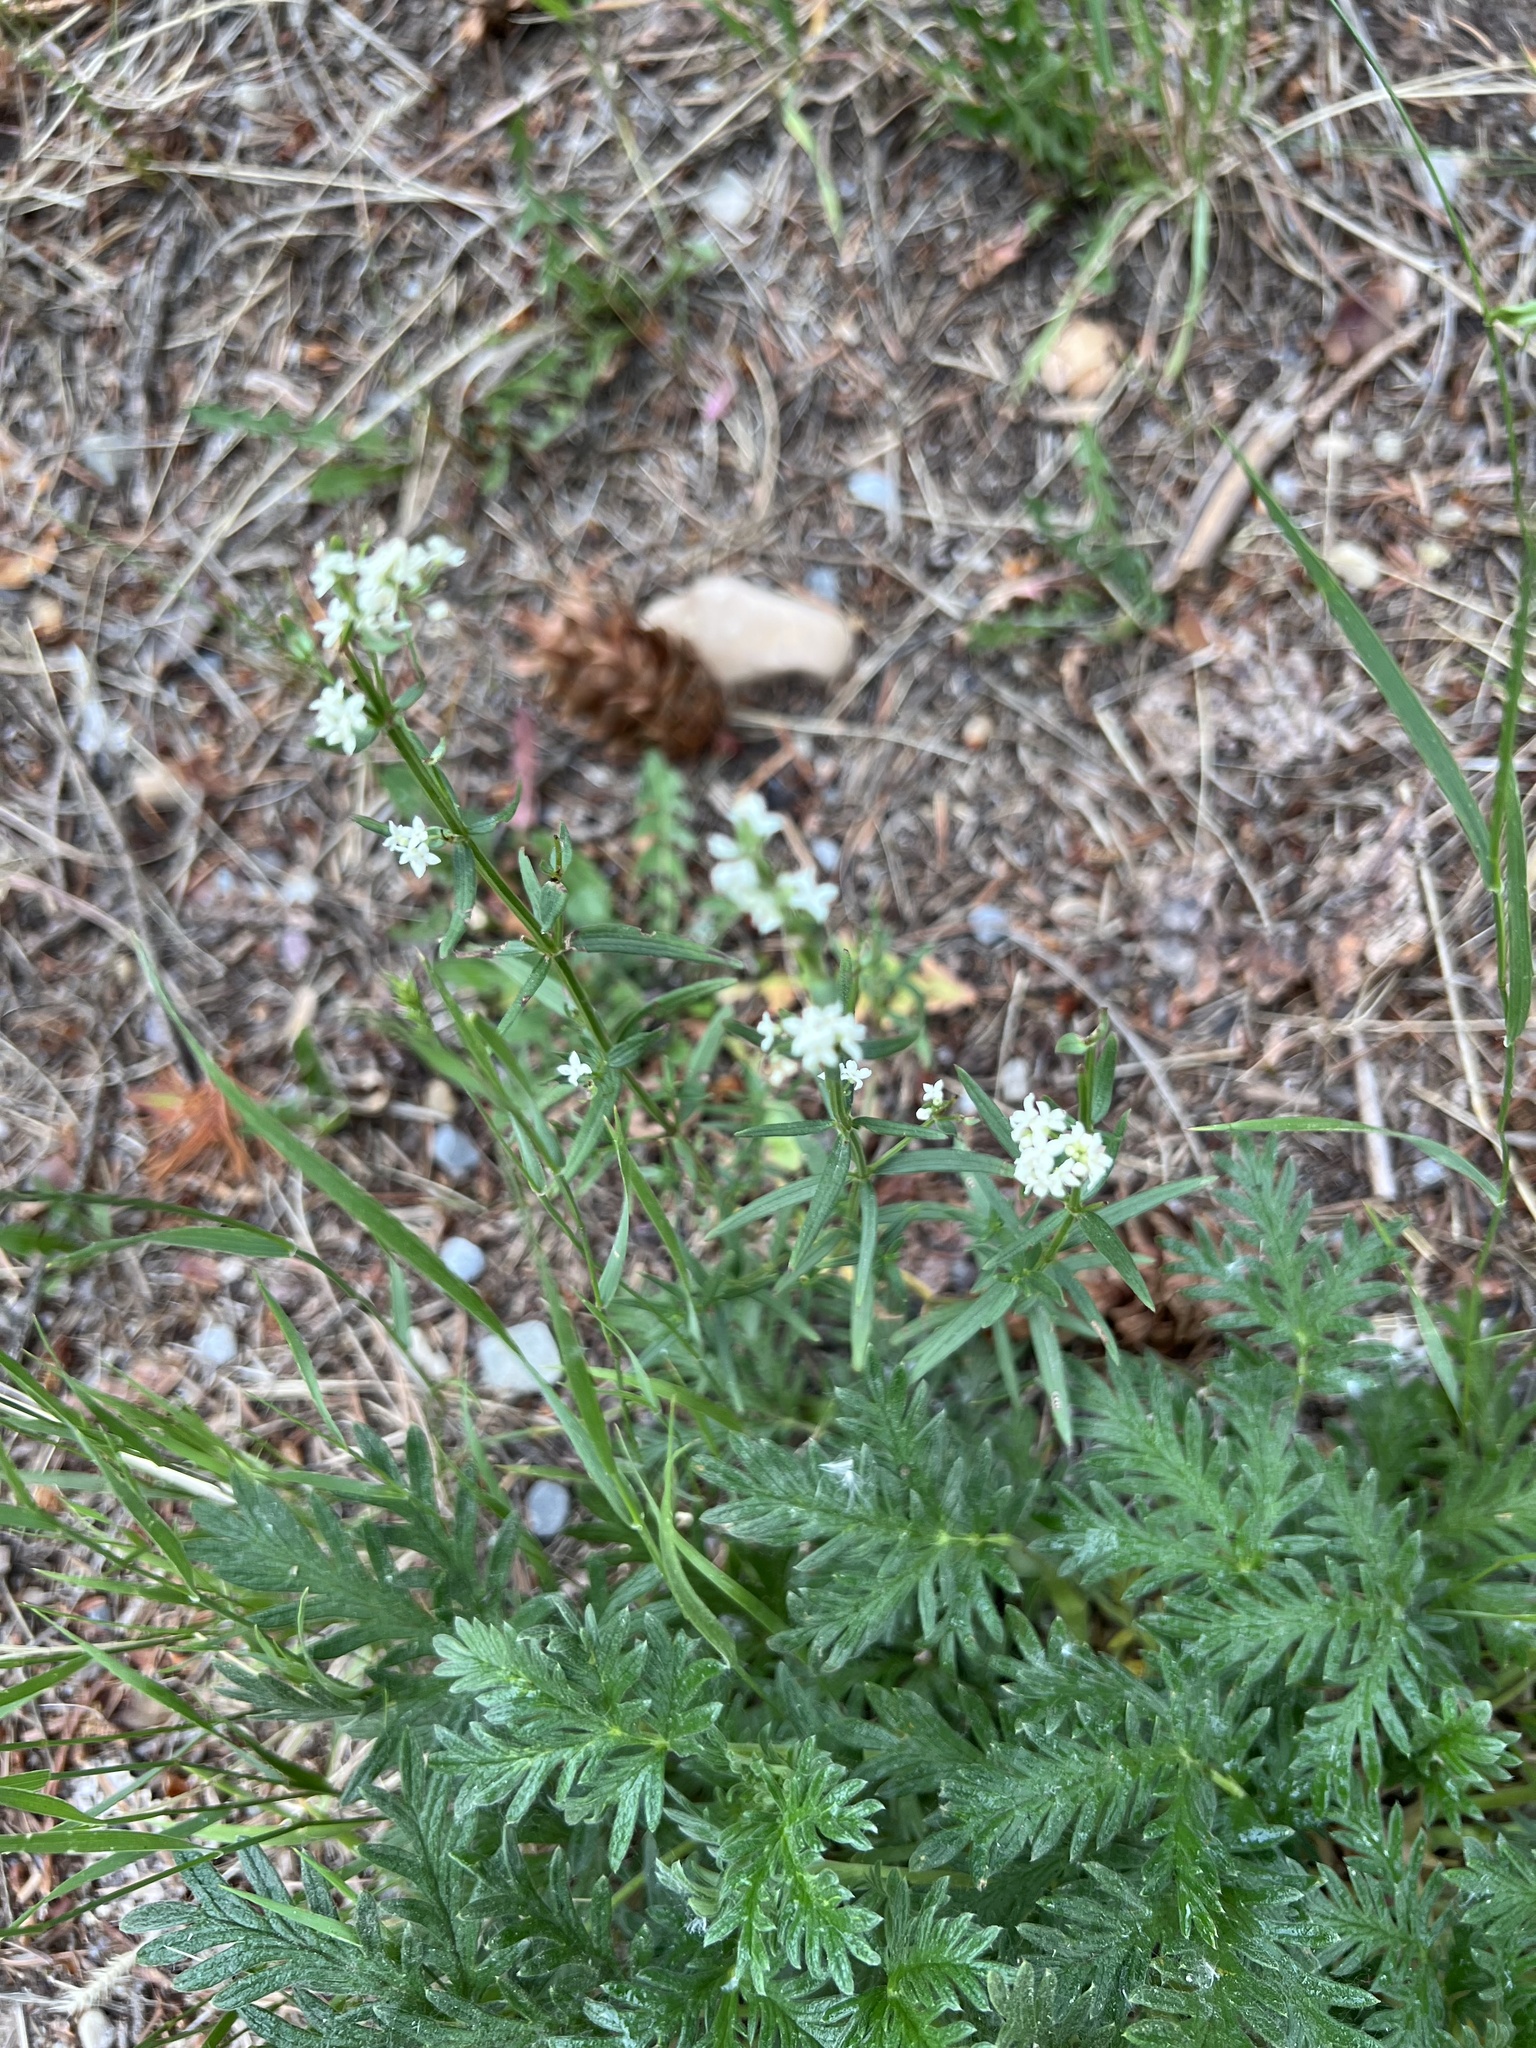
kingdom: Plantae
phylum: Tracheophyta
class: Magnoliopsida
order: Gentianales
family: Rubiaceae
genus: Galium
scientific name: Galium boreale
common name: Northern bedstraw
